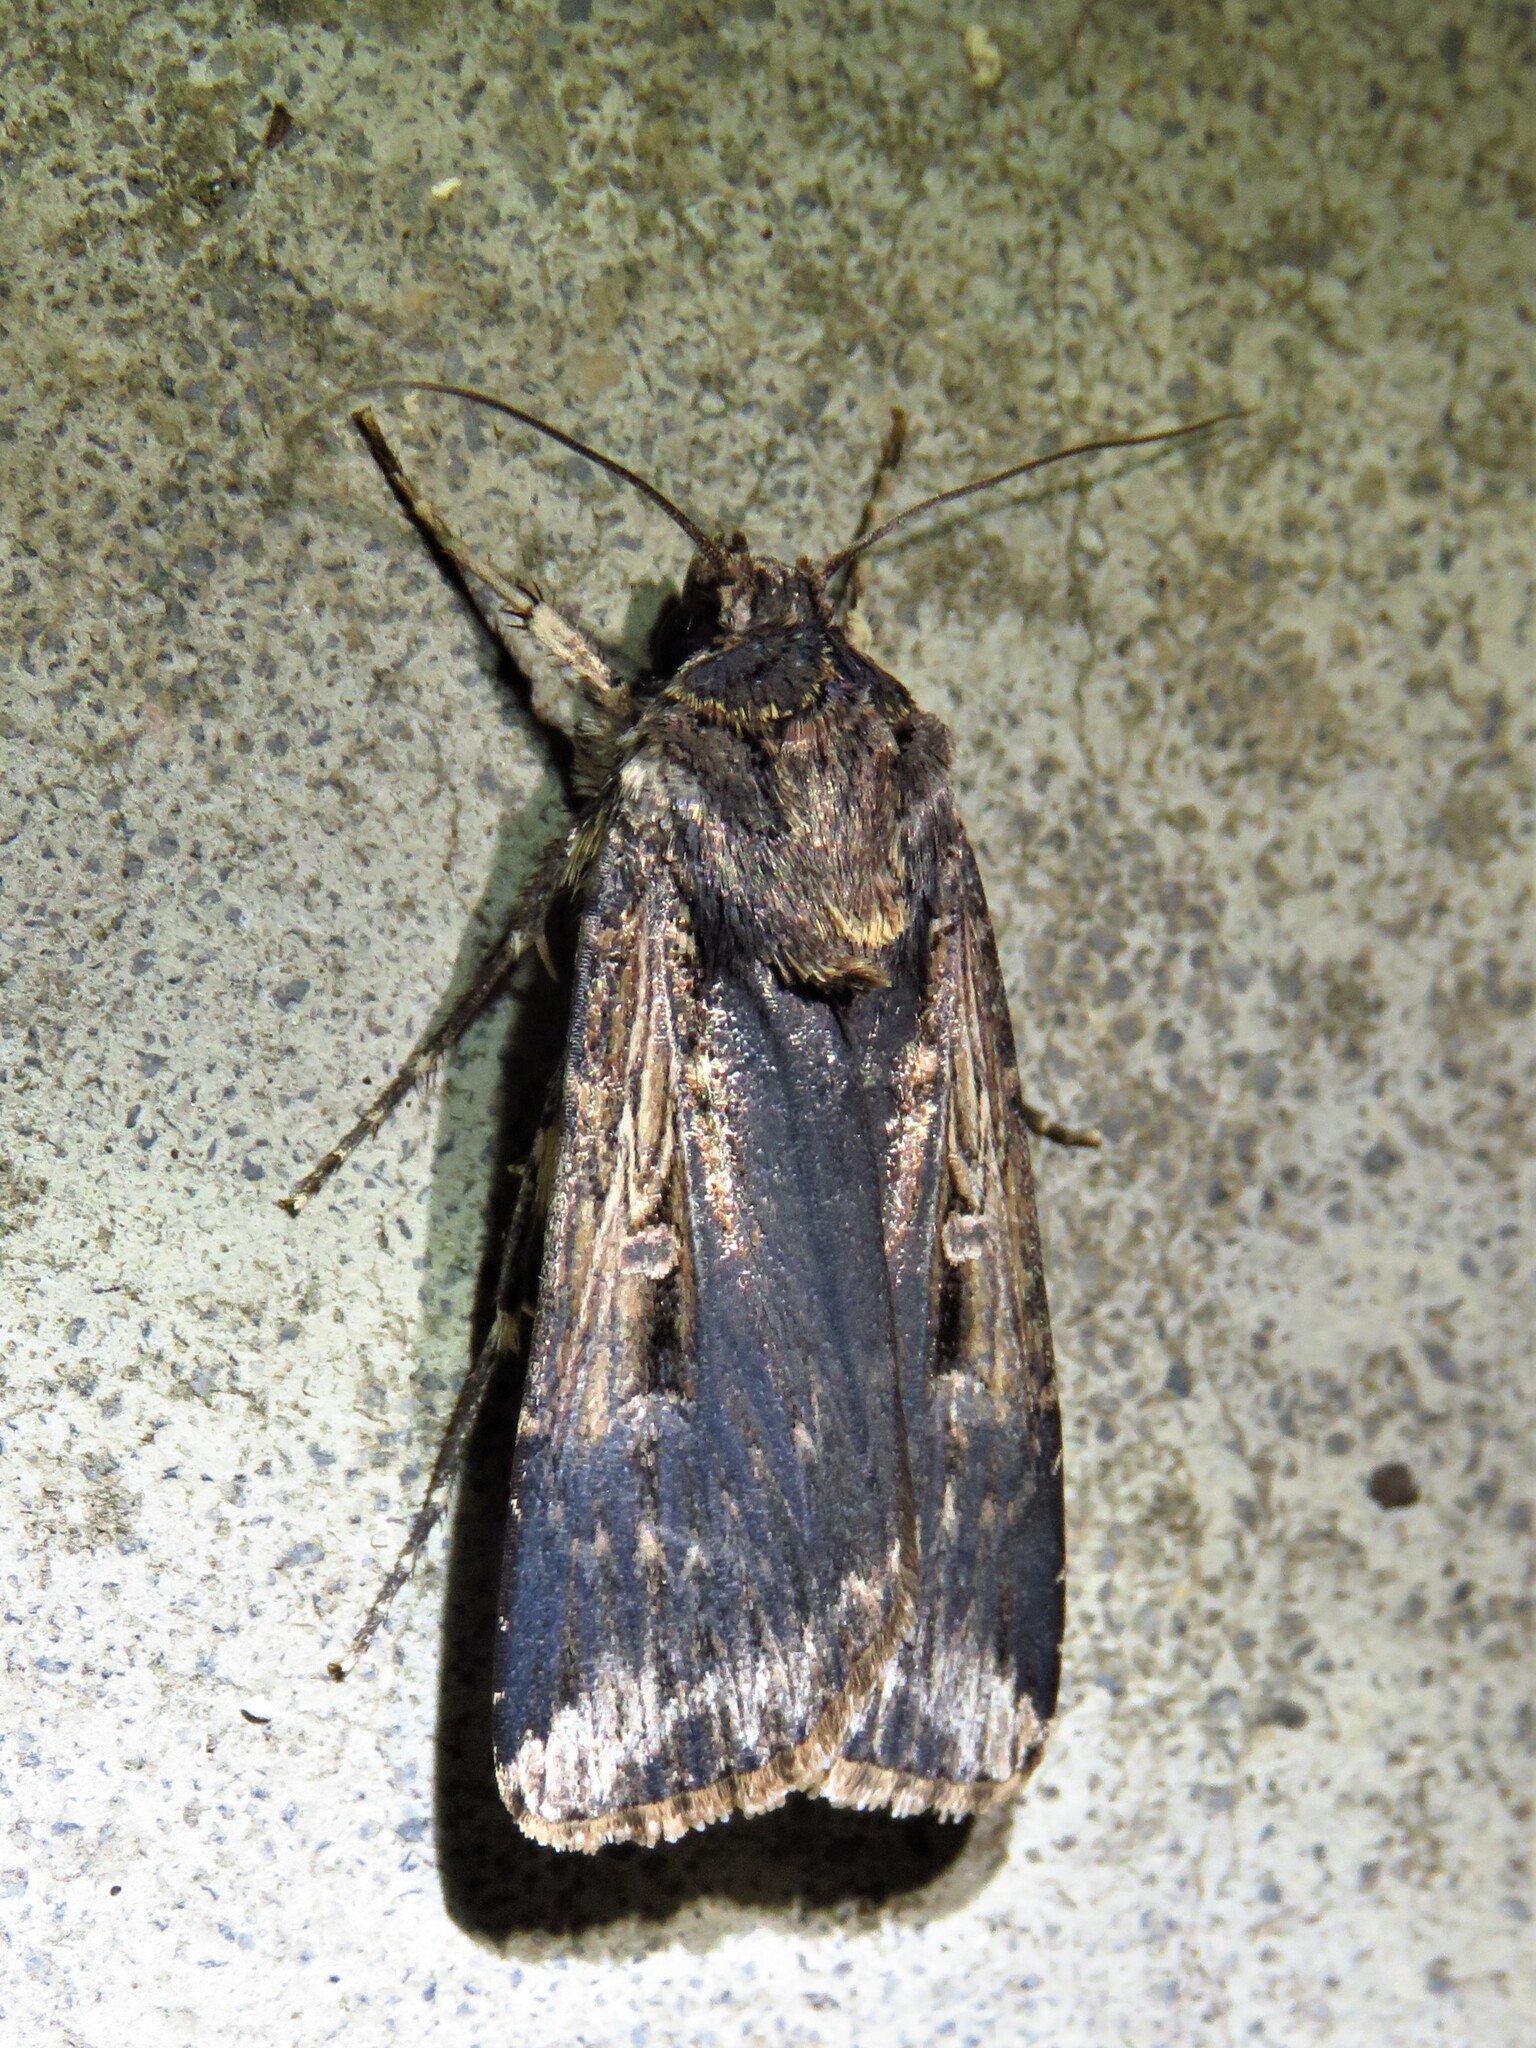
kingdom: Animalia
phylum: Arthropoda
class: Insecta
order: Lepidoptera
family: Noctuidae
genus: Feltia
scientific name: Feltia subterranea
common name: Granulate cutworm
